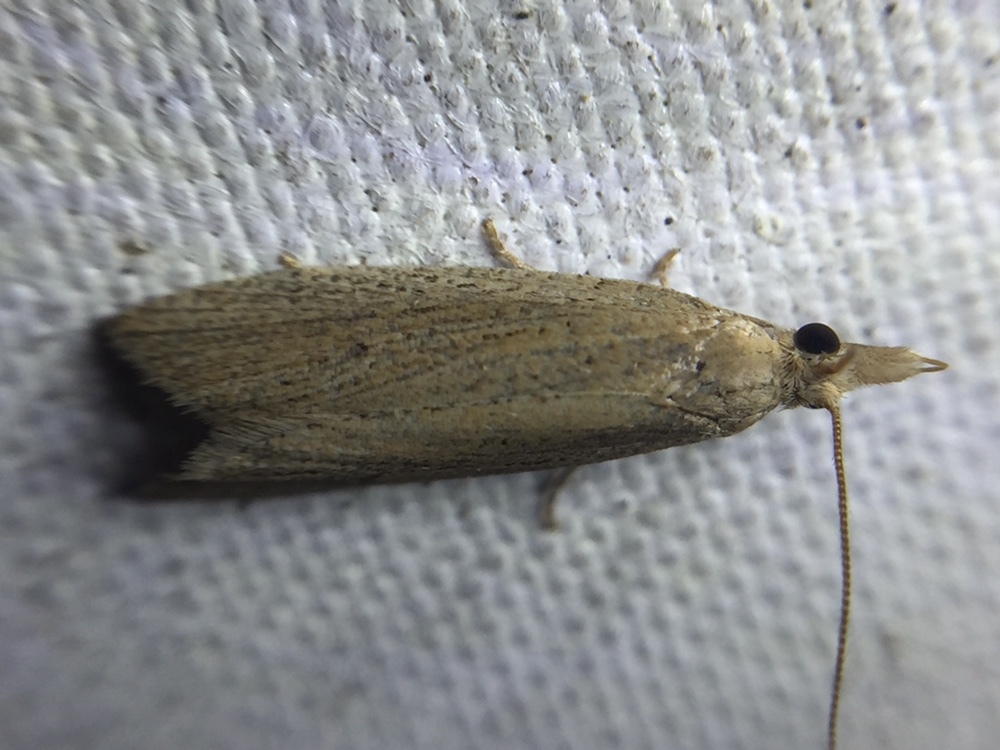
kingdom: Animalia
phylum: Arthropoda
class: Insecta
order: Lepidoptera
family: Tortricidae
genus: Bactra
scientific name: Bactra noteraula
